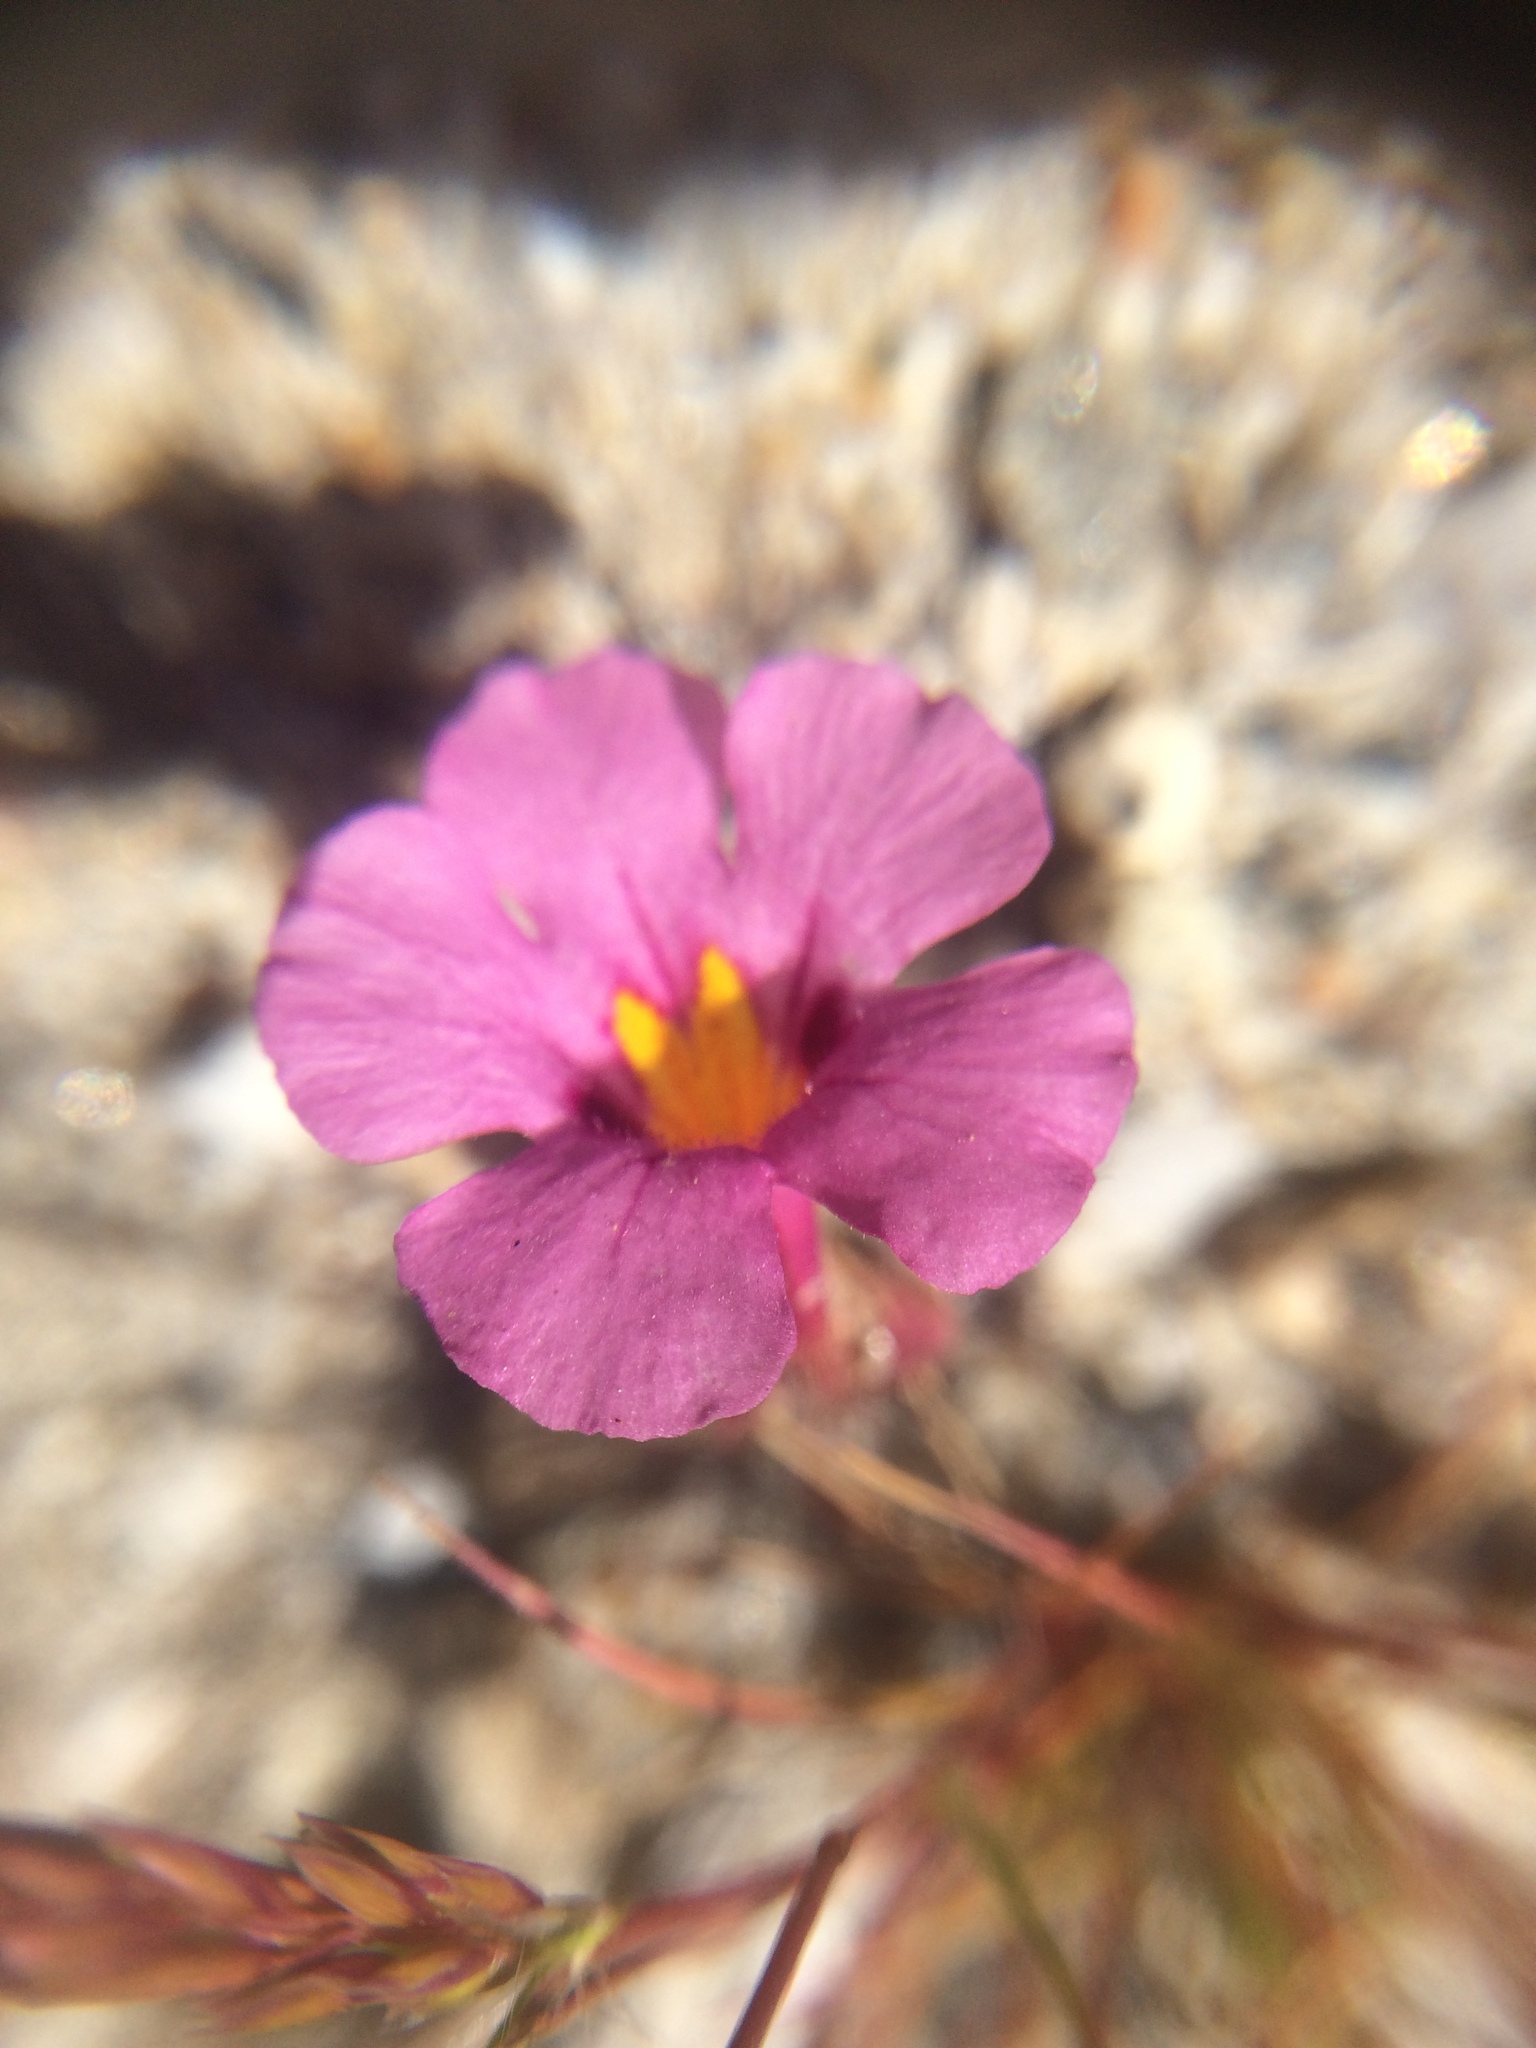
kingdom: Plantae
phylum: Tracheophyta
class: Magnoliopsida
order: Lamiales
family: Phrymaceae
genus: Diplacus
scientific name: Diplacus bigelovii
